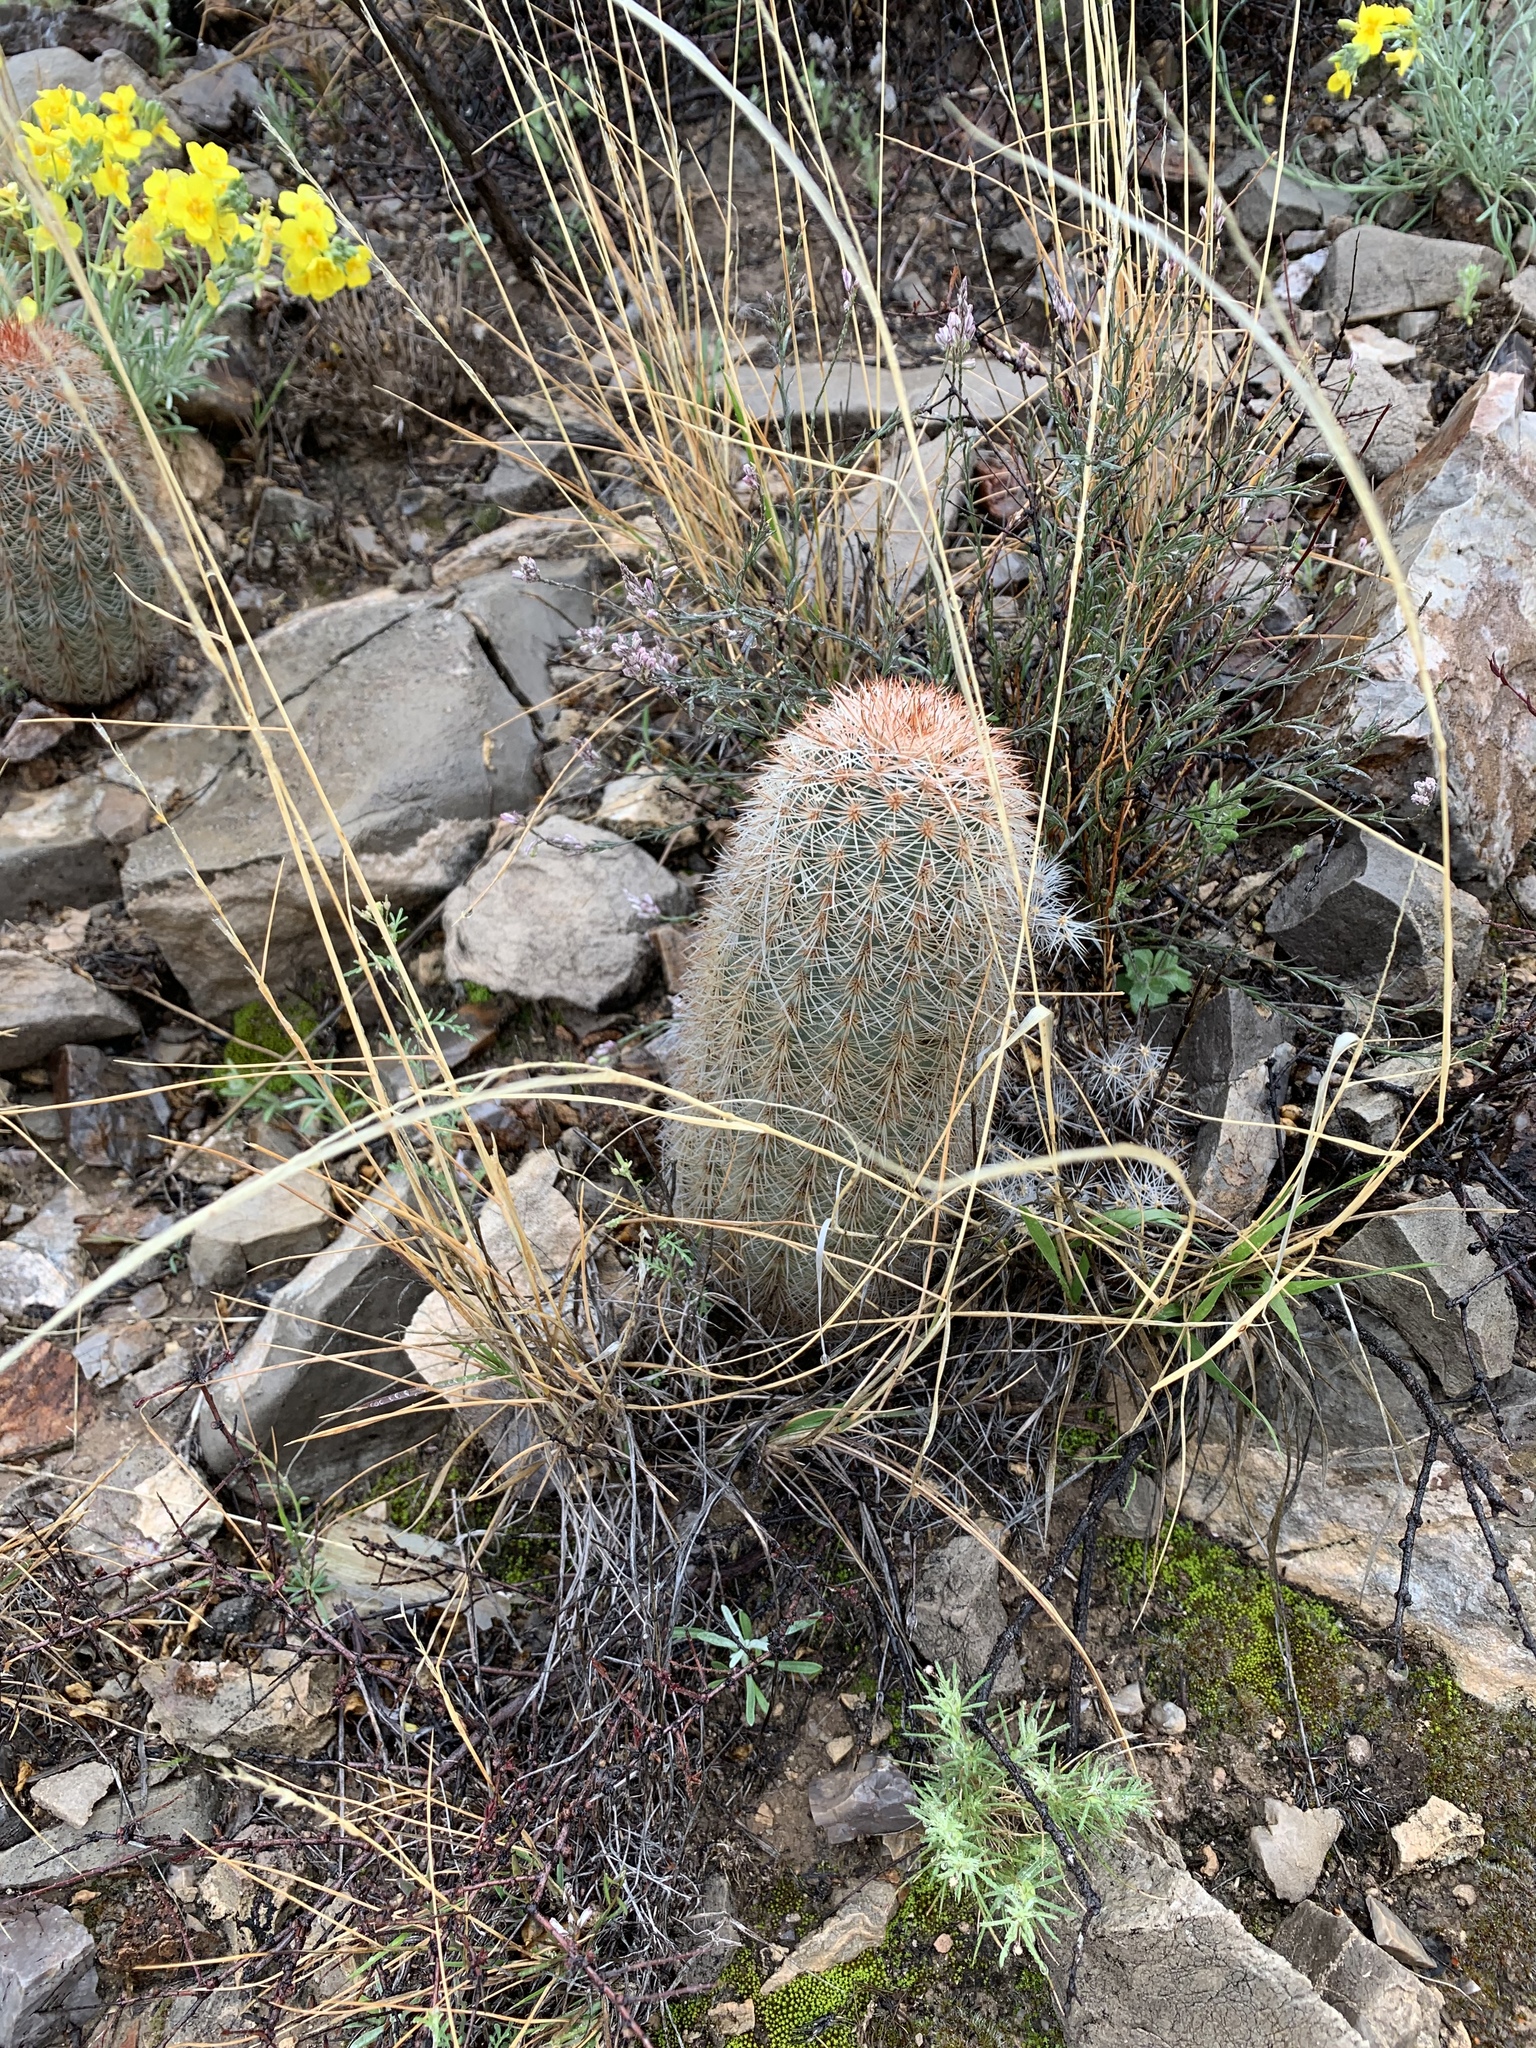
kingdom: Plantae
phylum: Tracheophyta
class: Magnoliopsida
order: Caryophyllales
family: Cactaceae
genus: Echinocereus
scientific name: Echinocereus dasyacanthus
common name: Spiny hedgehog cactus
